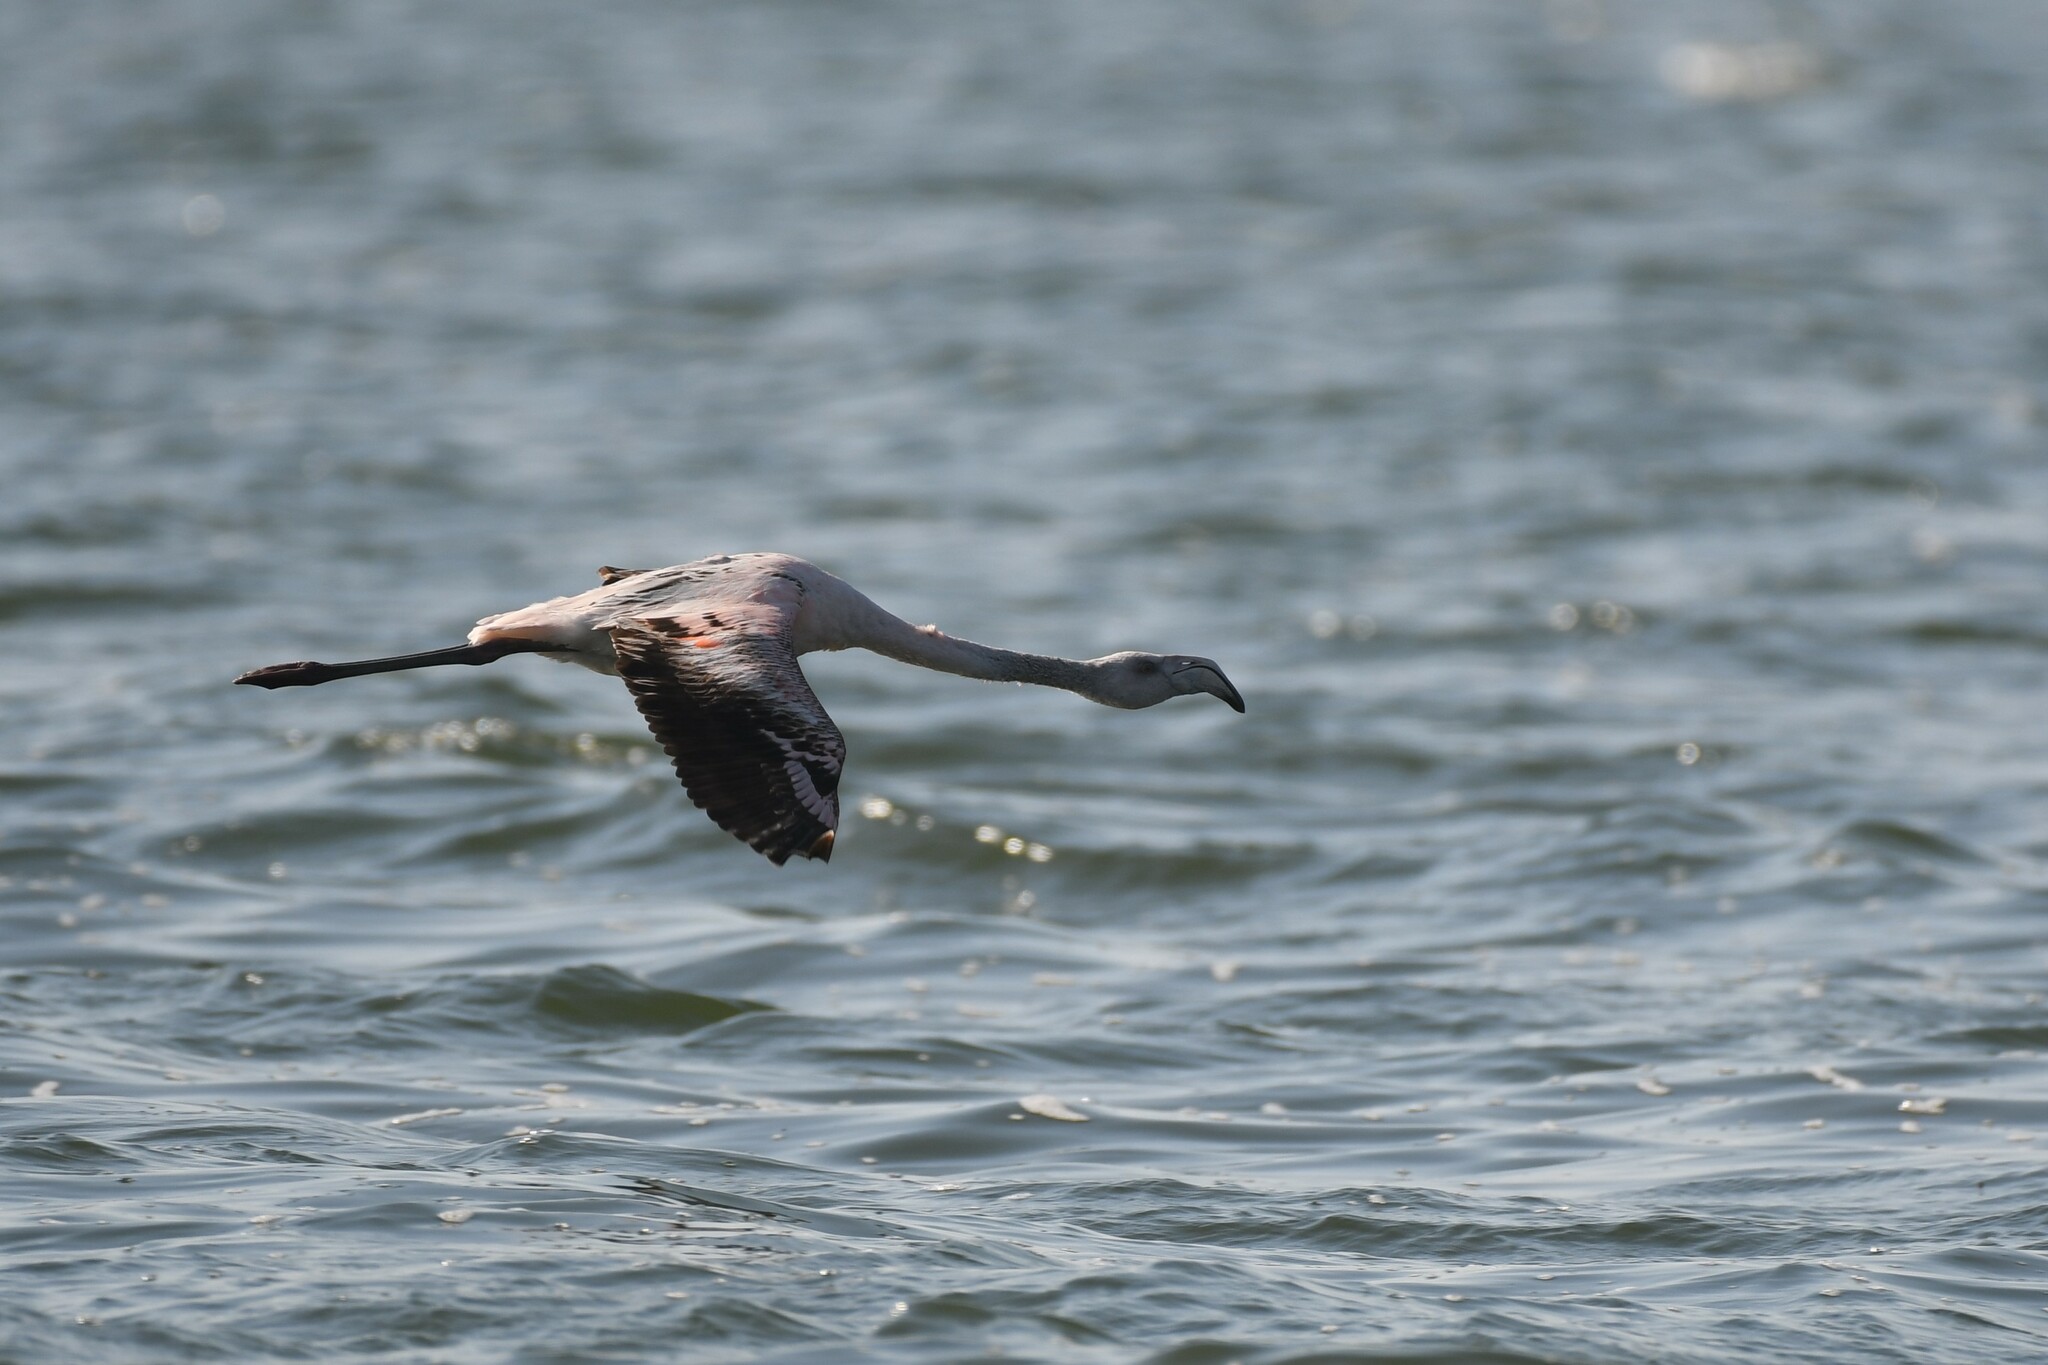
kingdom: Animalia
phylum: Chordata
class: Aves
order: Phoenicopteriformes
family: Phoenicopteridae
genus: Phoenicopterus
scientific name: Phoenicopterus chilensis
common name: Chilean flamingo
